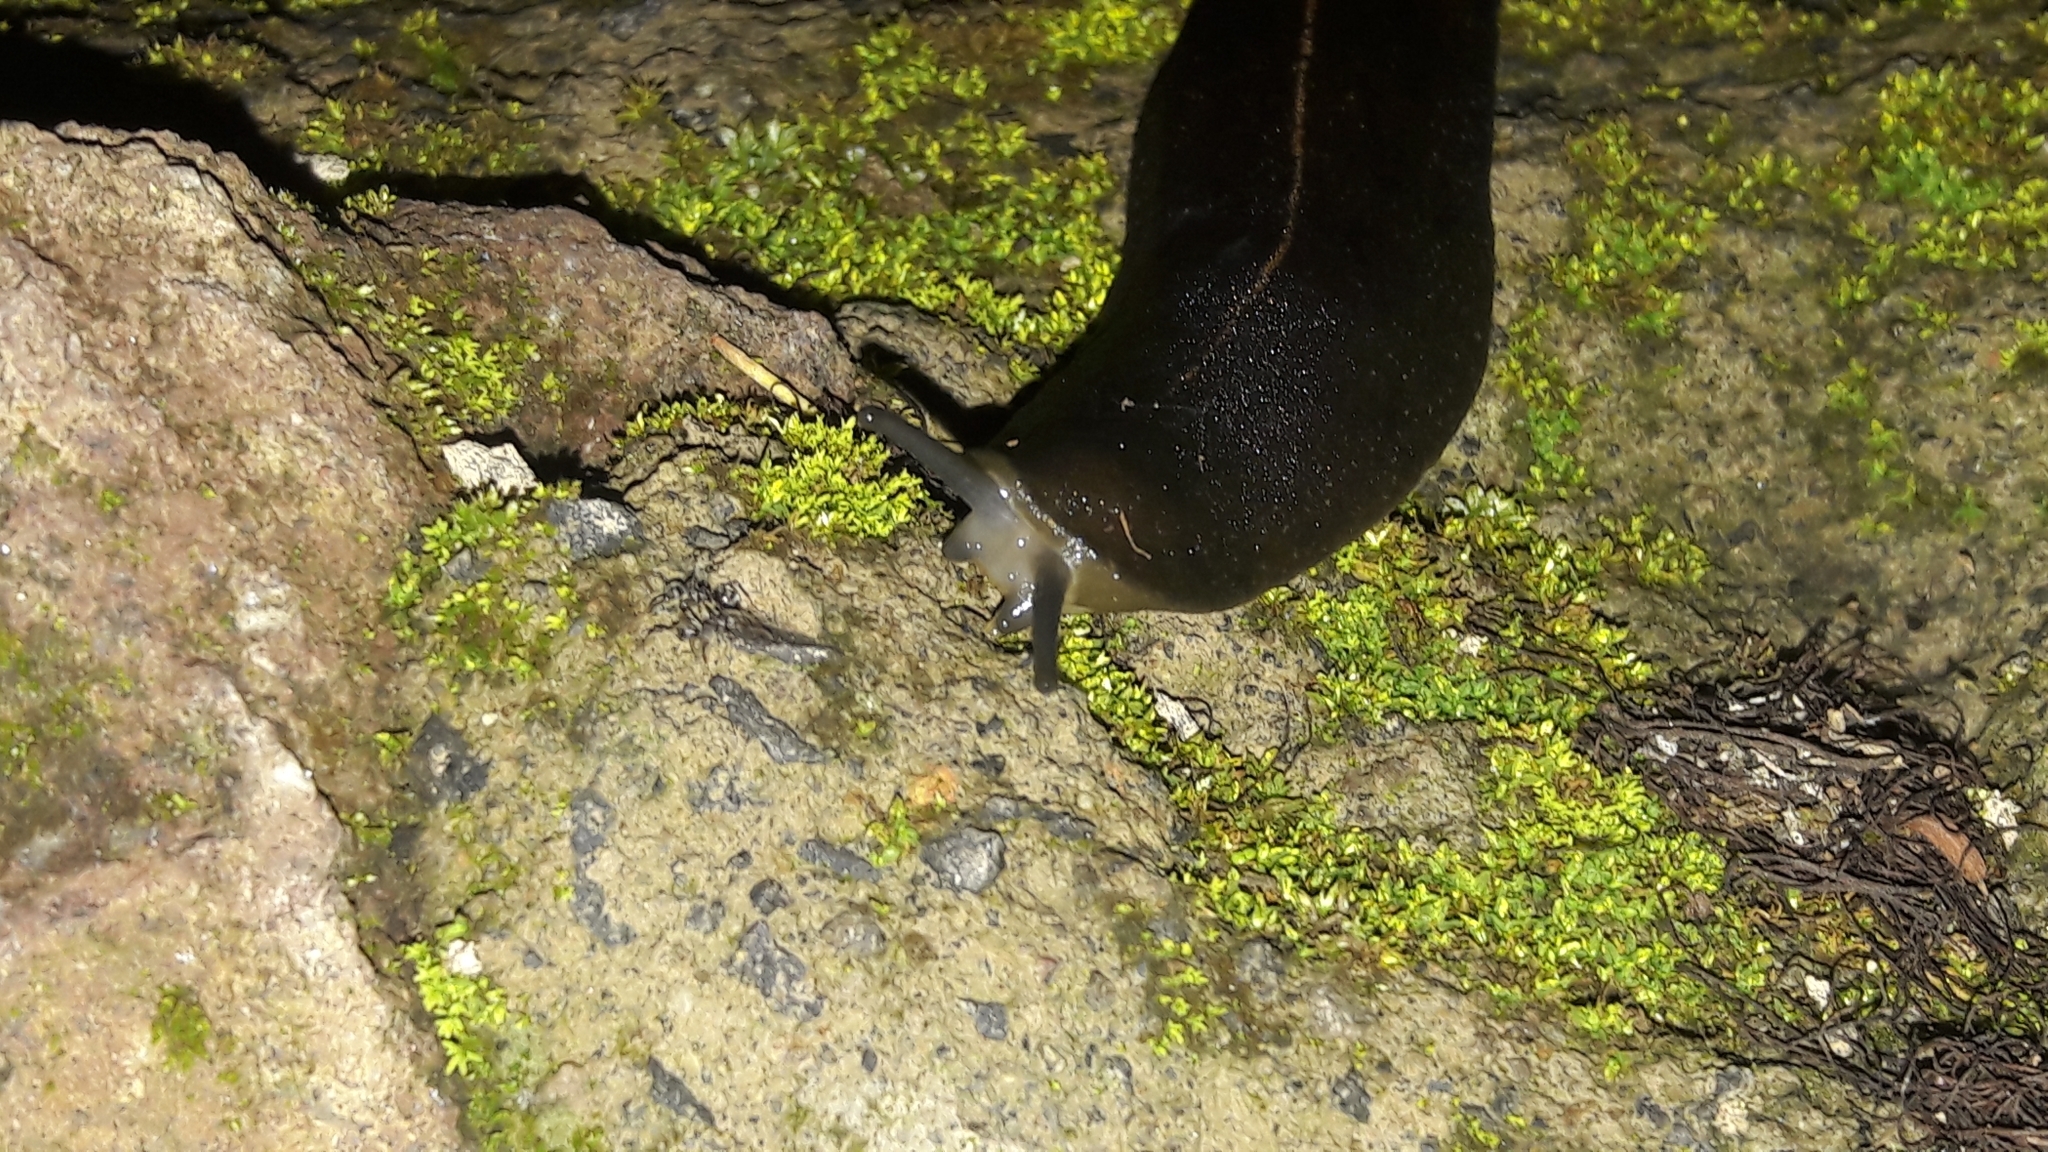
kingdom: Animalia
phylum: Mollusca
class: Gastropoda
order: Systellommatophora
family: Veronicellidae
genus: Laevicaulis
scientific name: Laevicaulis alte
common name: Tropical leatherleaf
